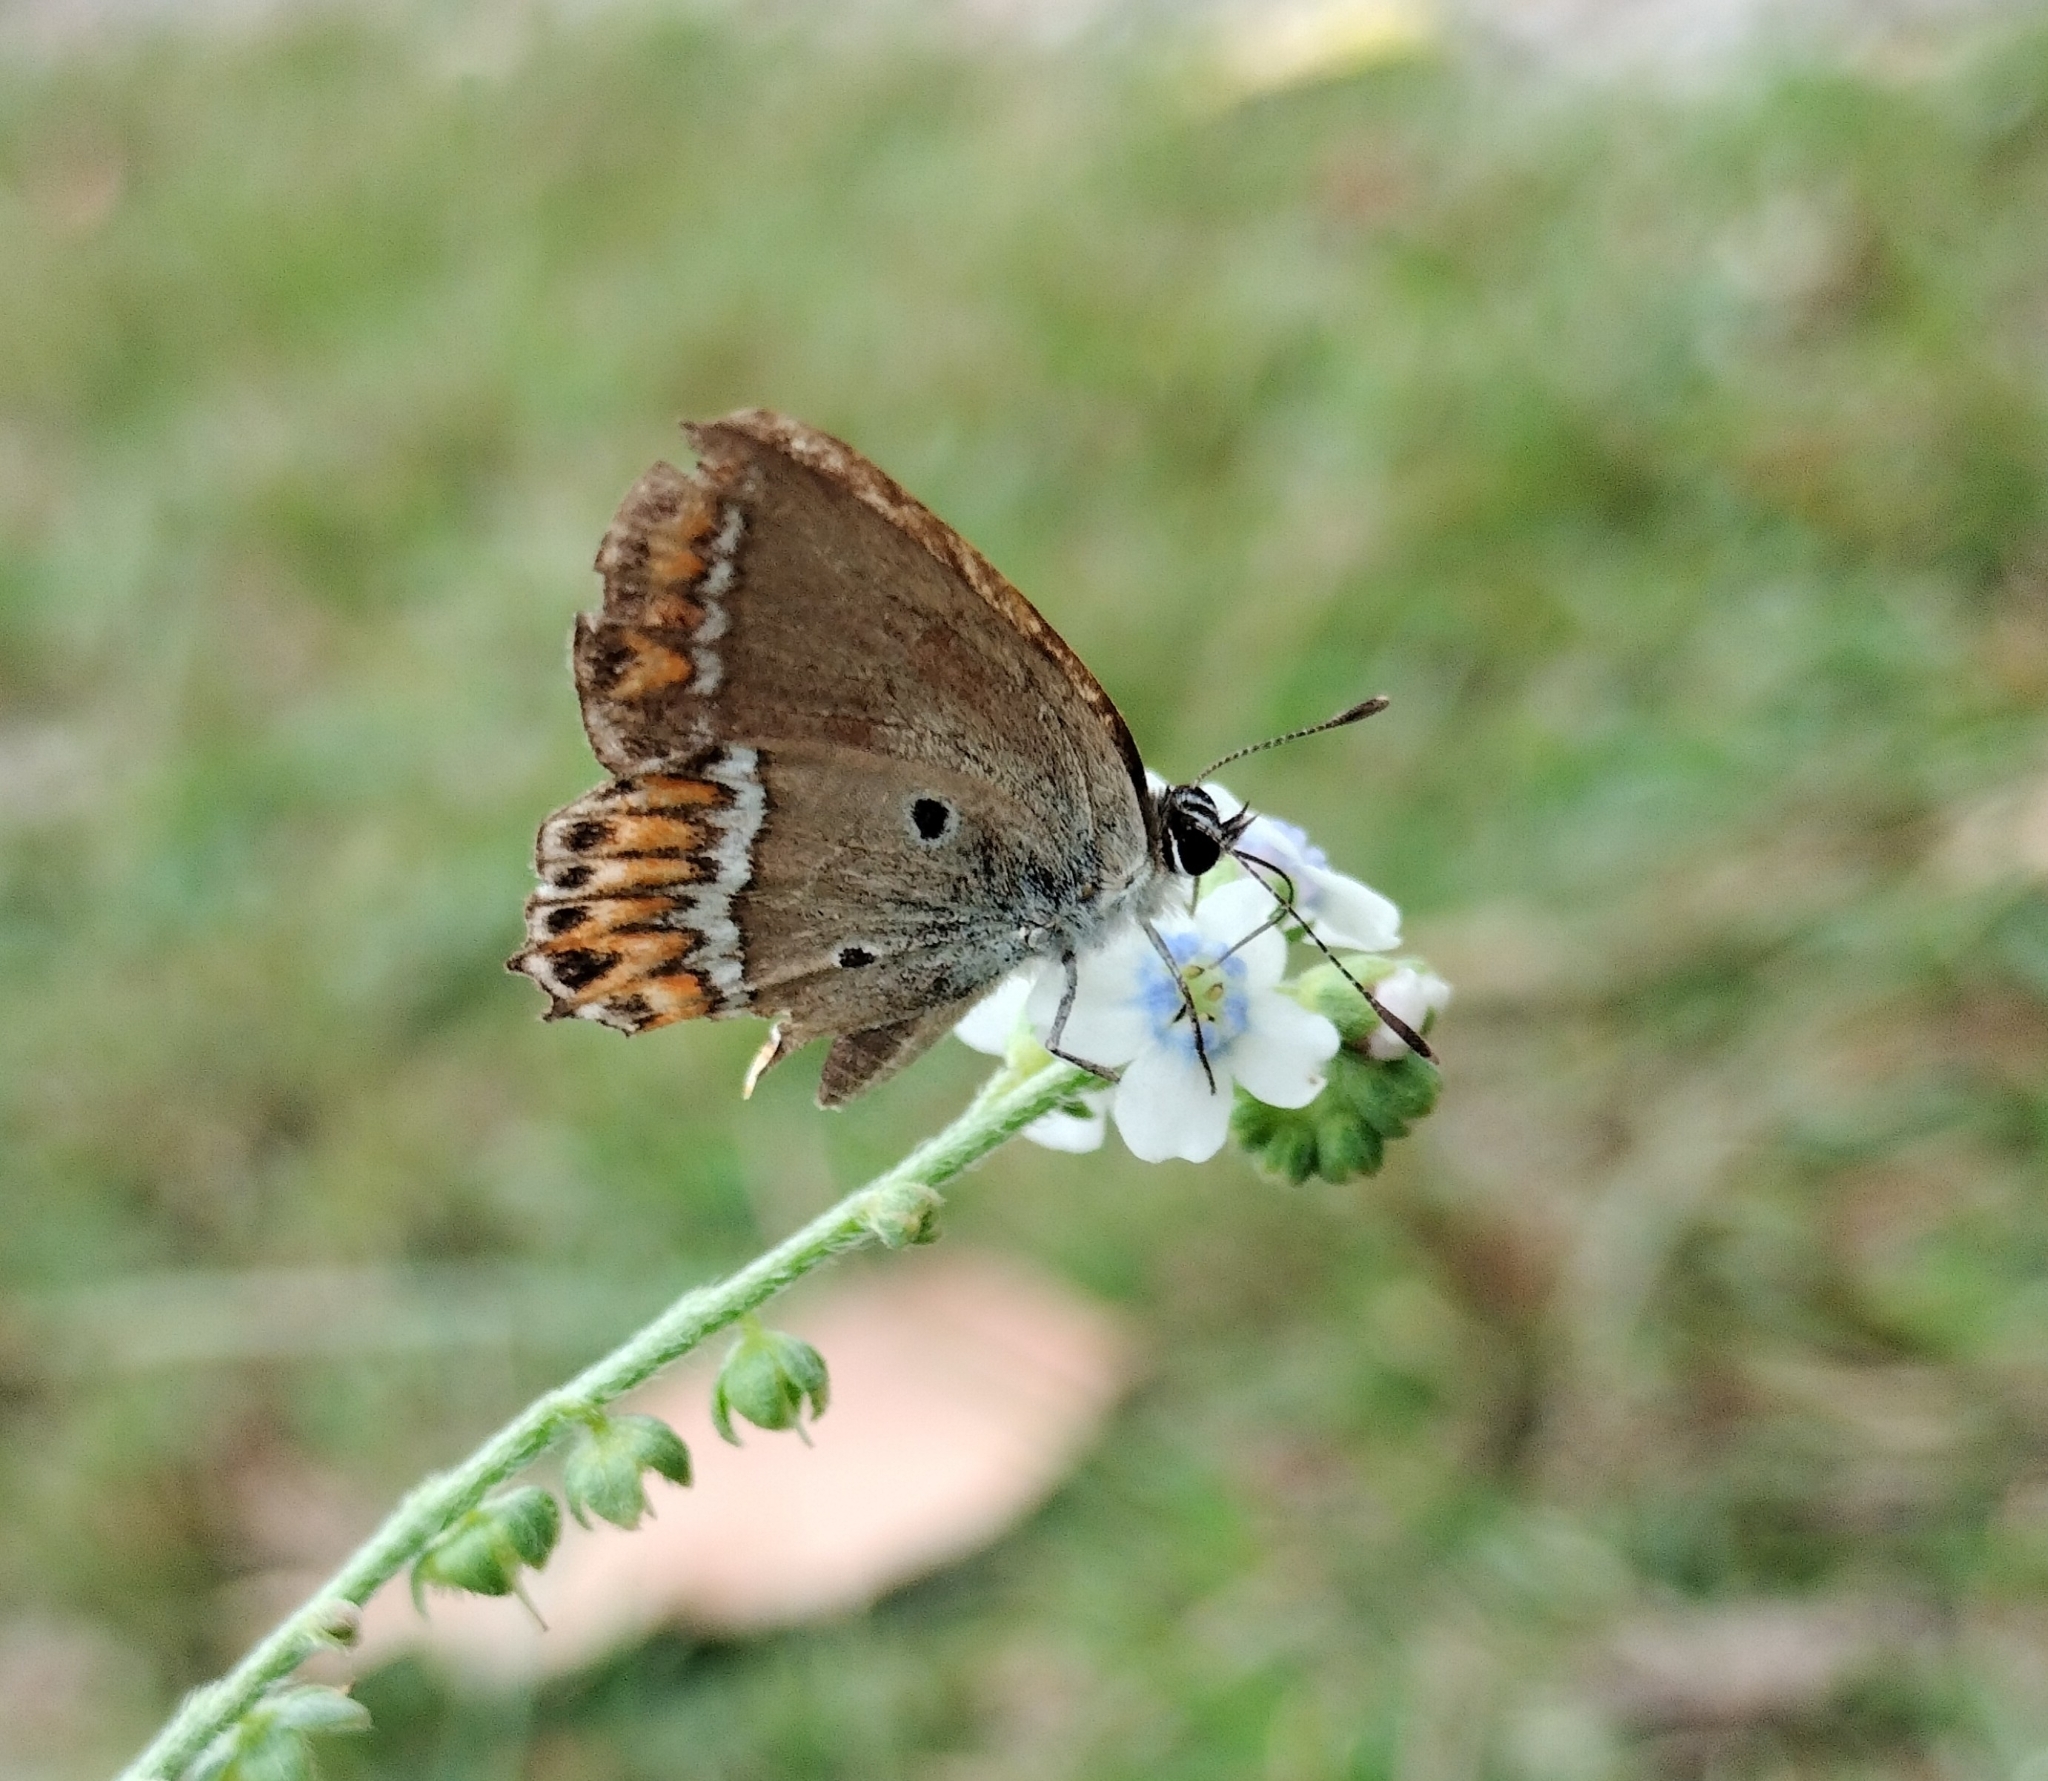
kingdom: Animalia
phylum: Arthropoda
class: Insecta
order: Lepidoptera
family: Lycaenidae
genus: Heliophorus
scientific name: Heliophorus sena
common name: Sorrel sapphire
